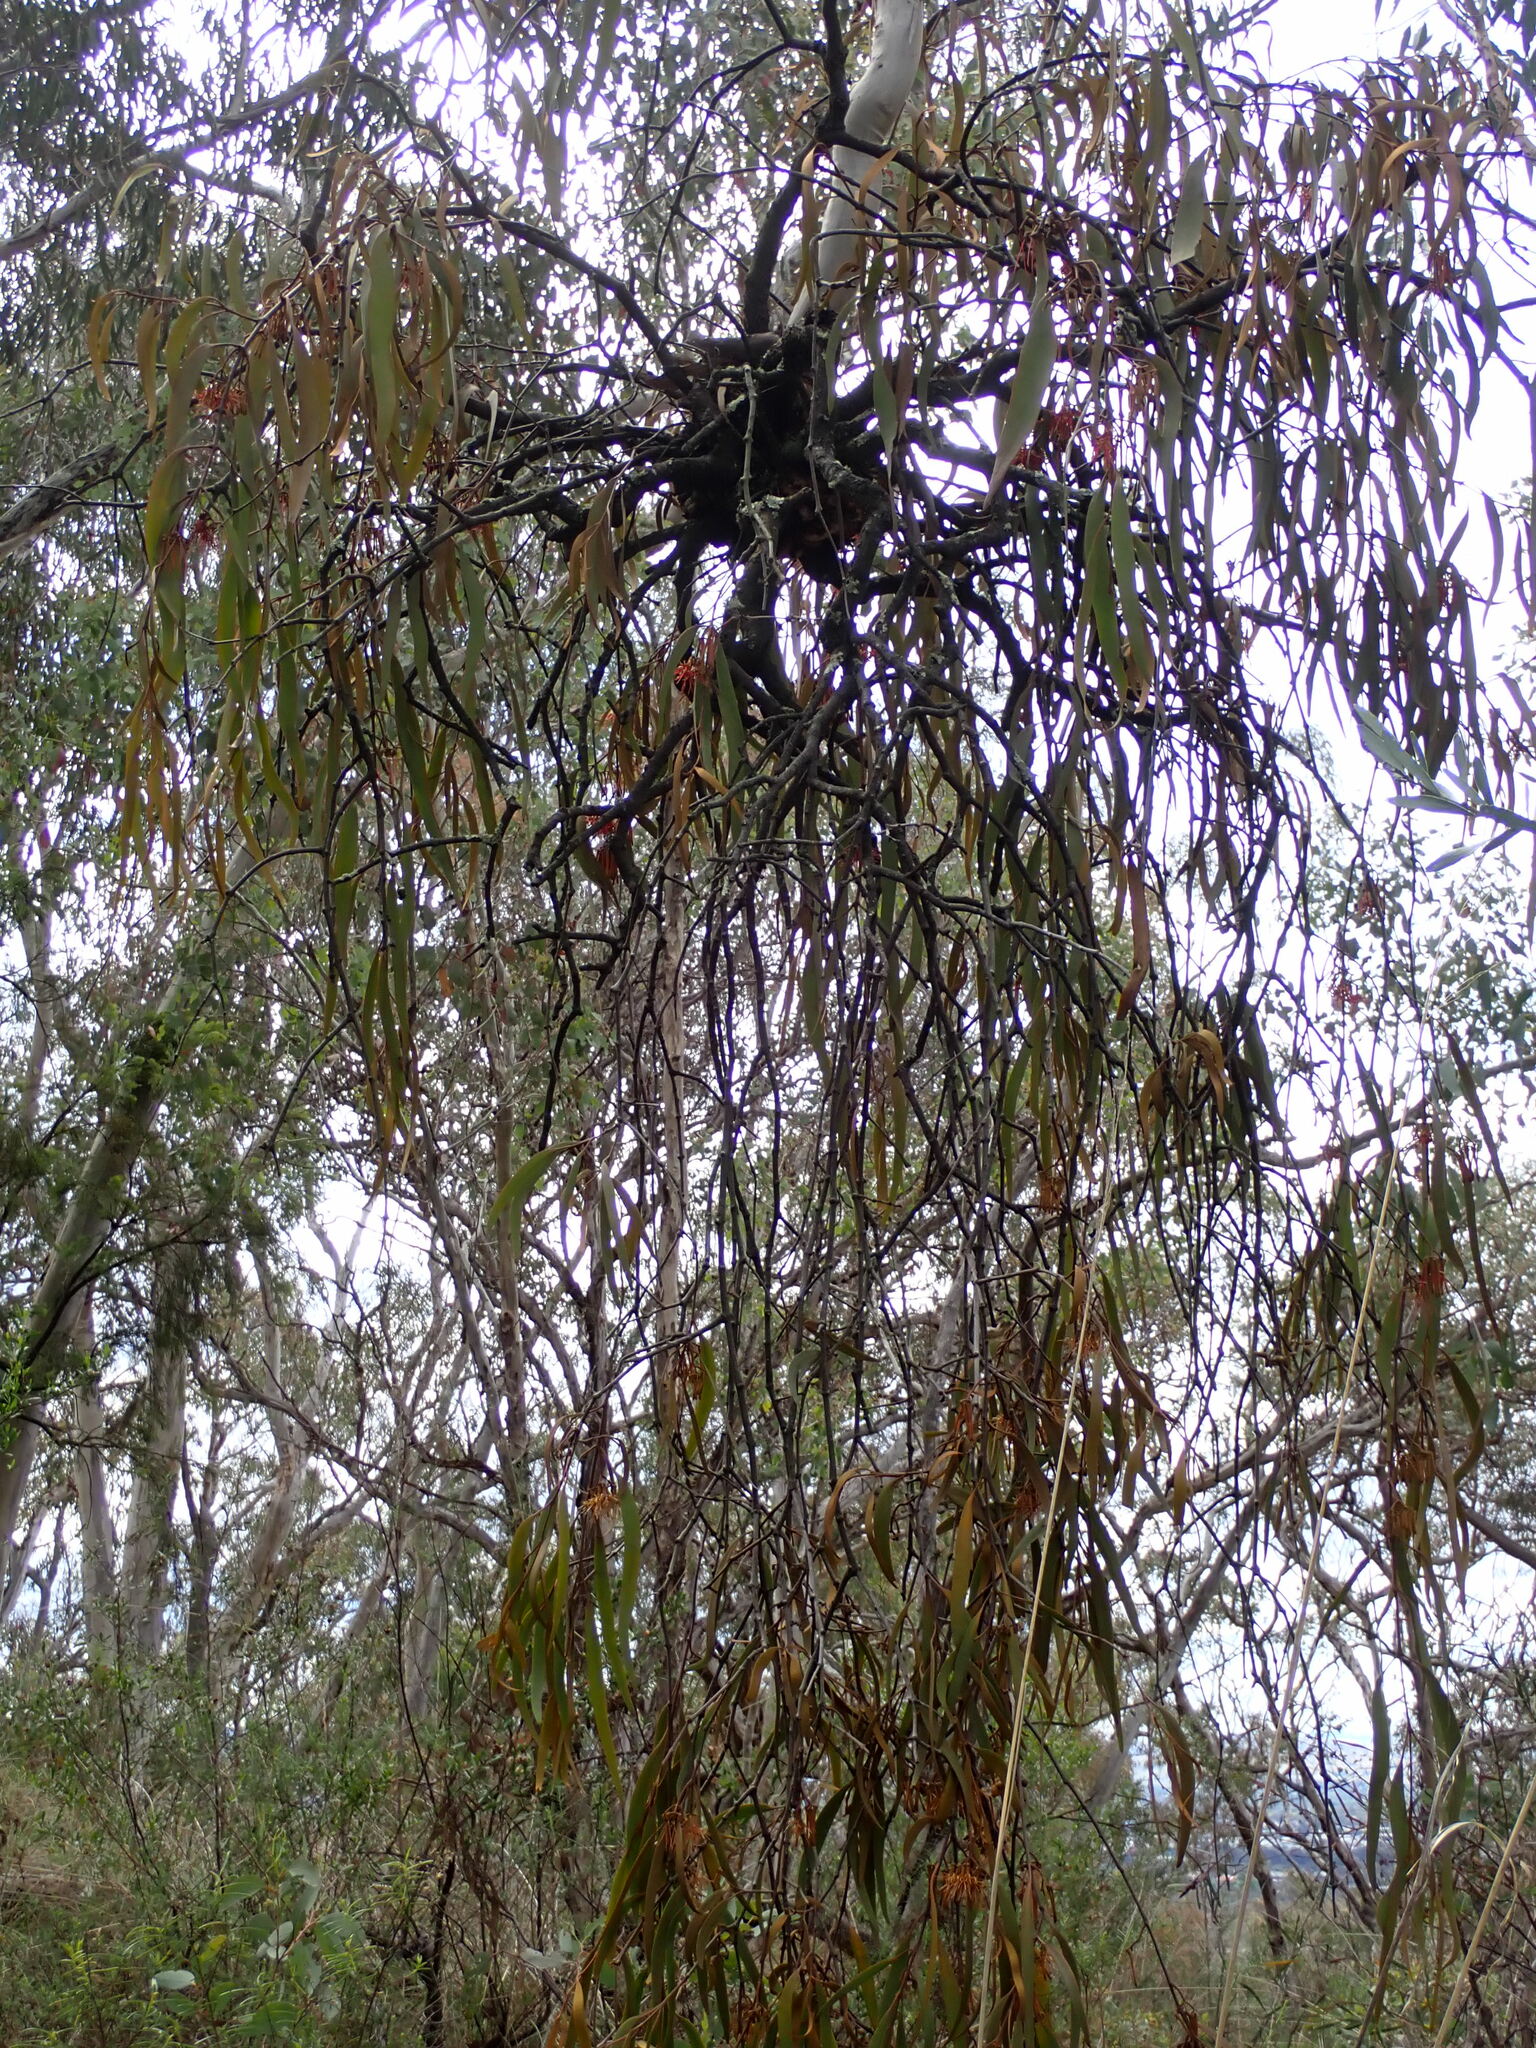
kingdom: Plantae
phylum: Tracheophyta
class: Magnoliopsida
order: Santalales
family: Loranthaceae
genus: Amyema
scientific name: Amyema pendula
